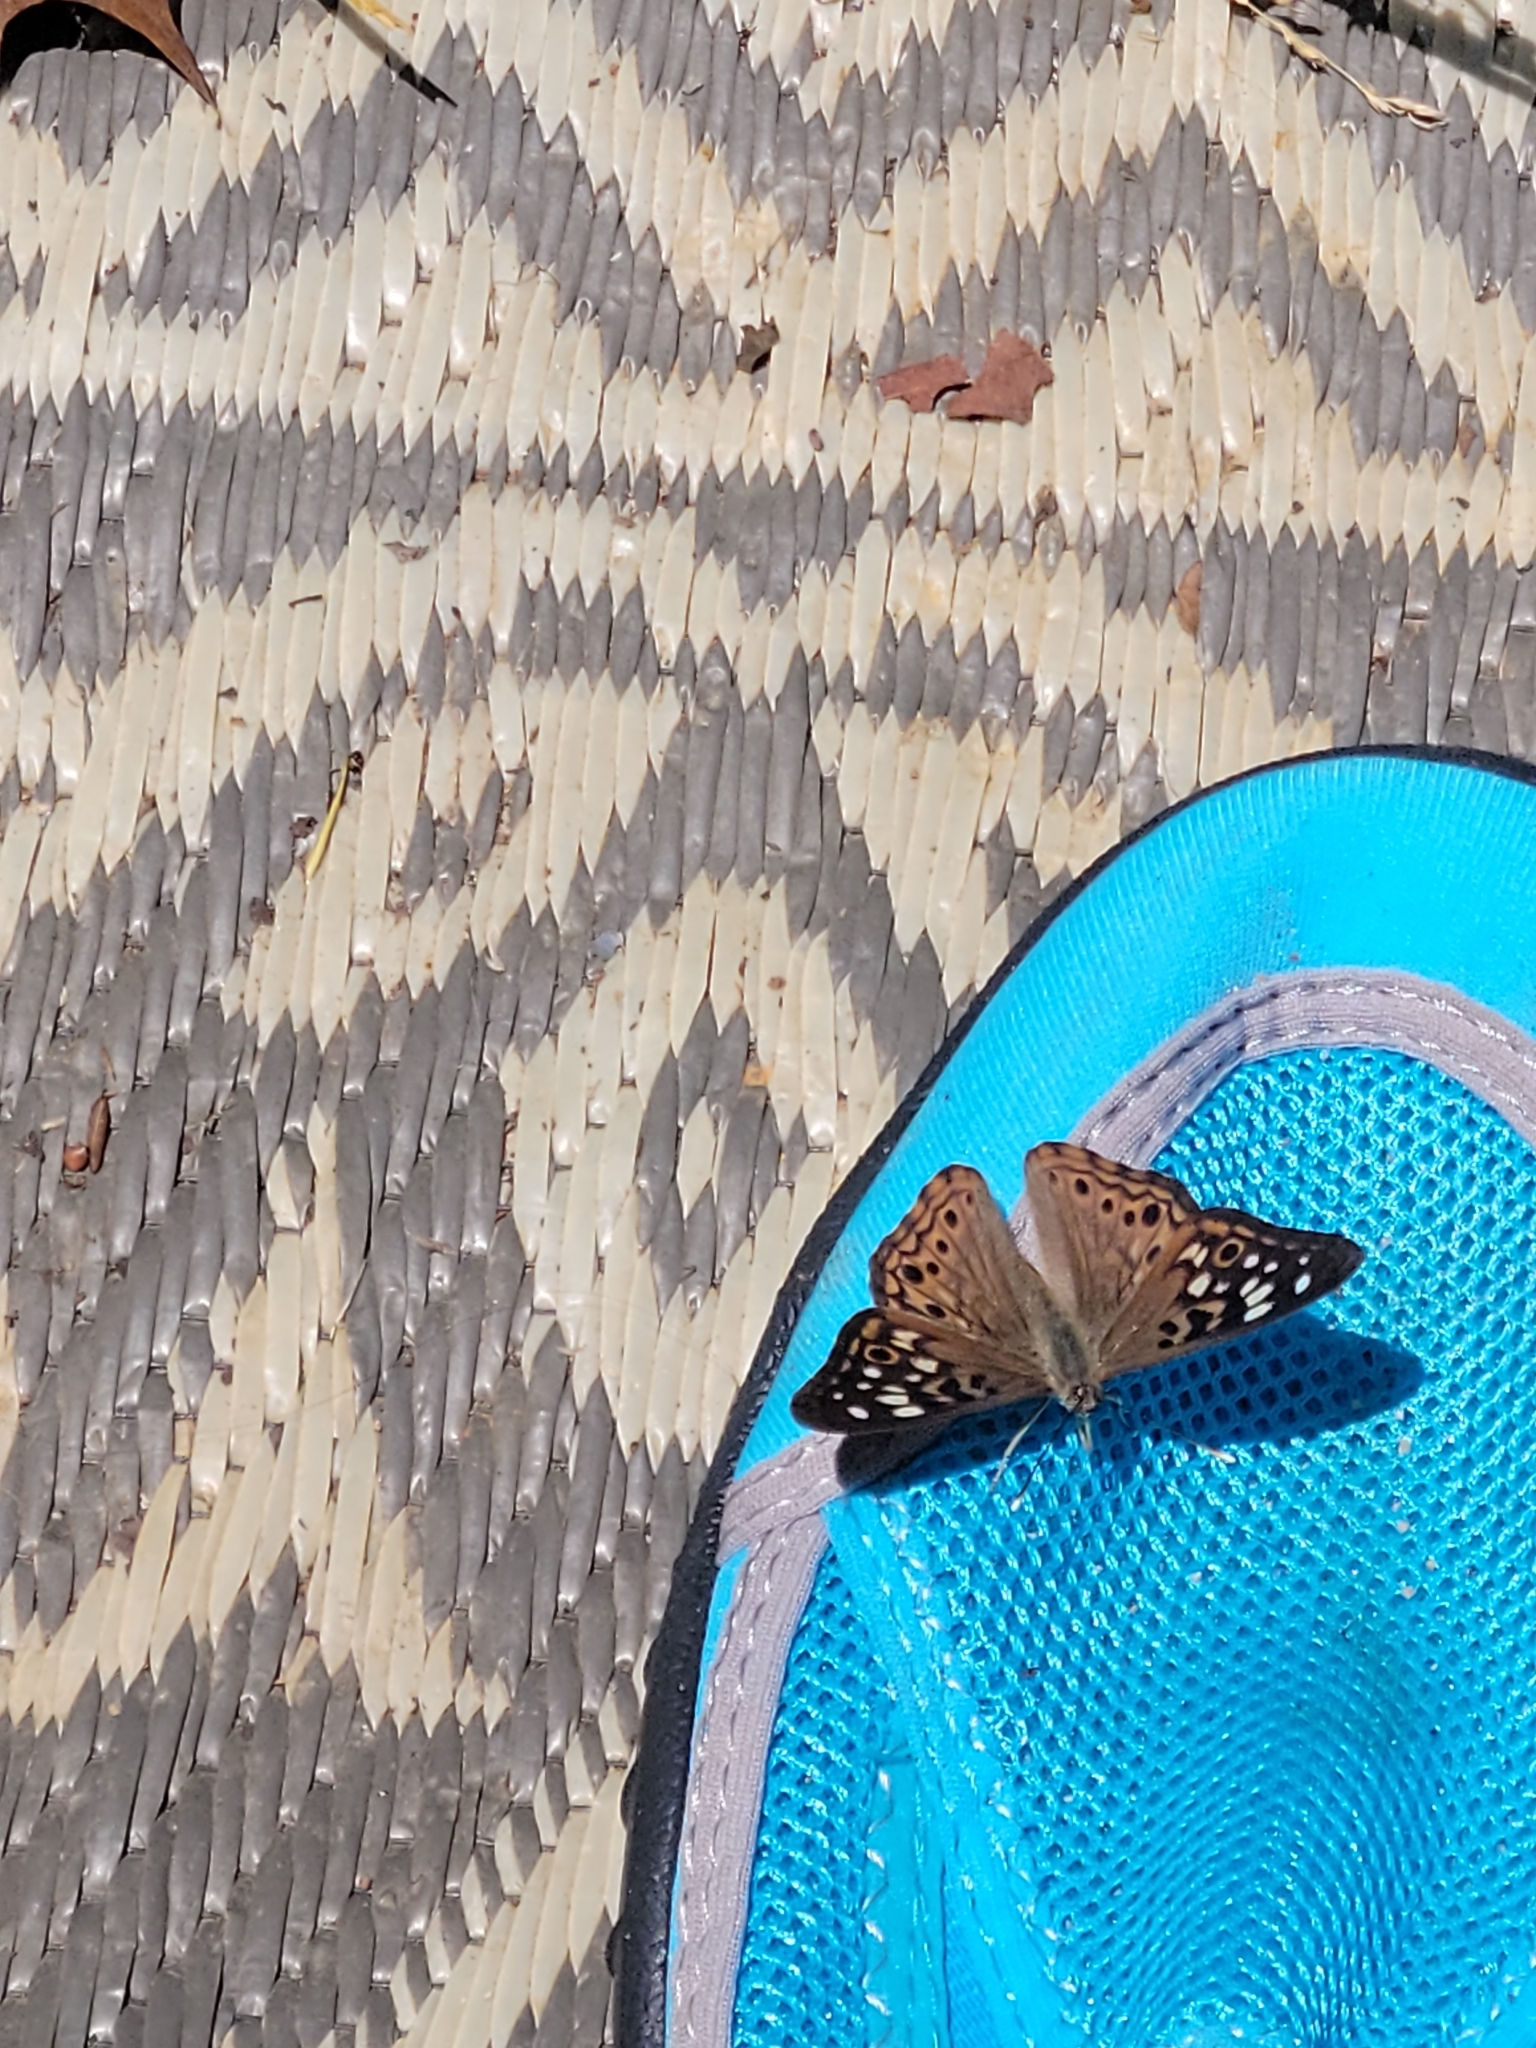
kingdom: Animalia
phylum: Arthropoda
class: Insecta
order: Lepidoptera
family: Nymphalidae
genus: Asterocampa
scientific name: Asterocampa celtis
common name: Hackberry emperor
